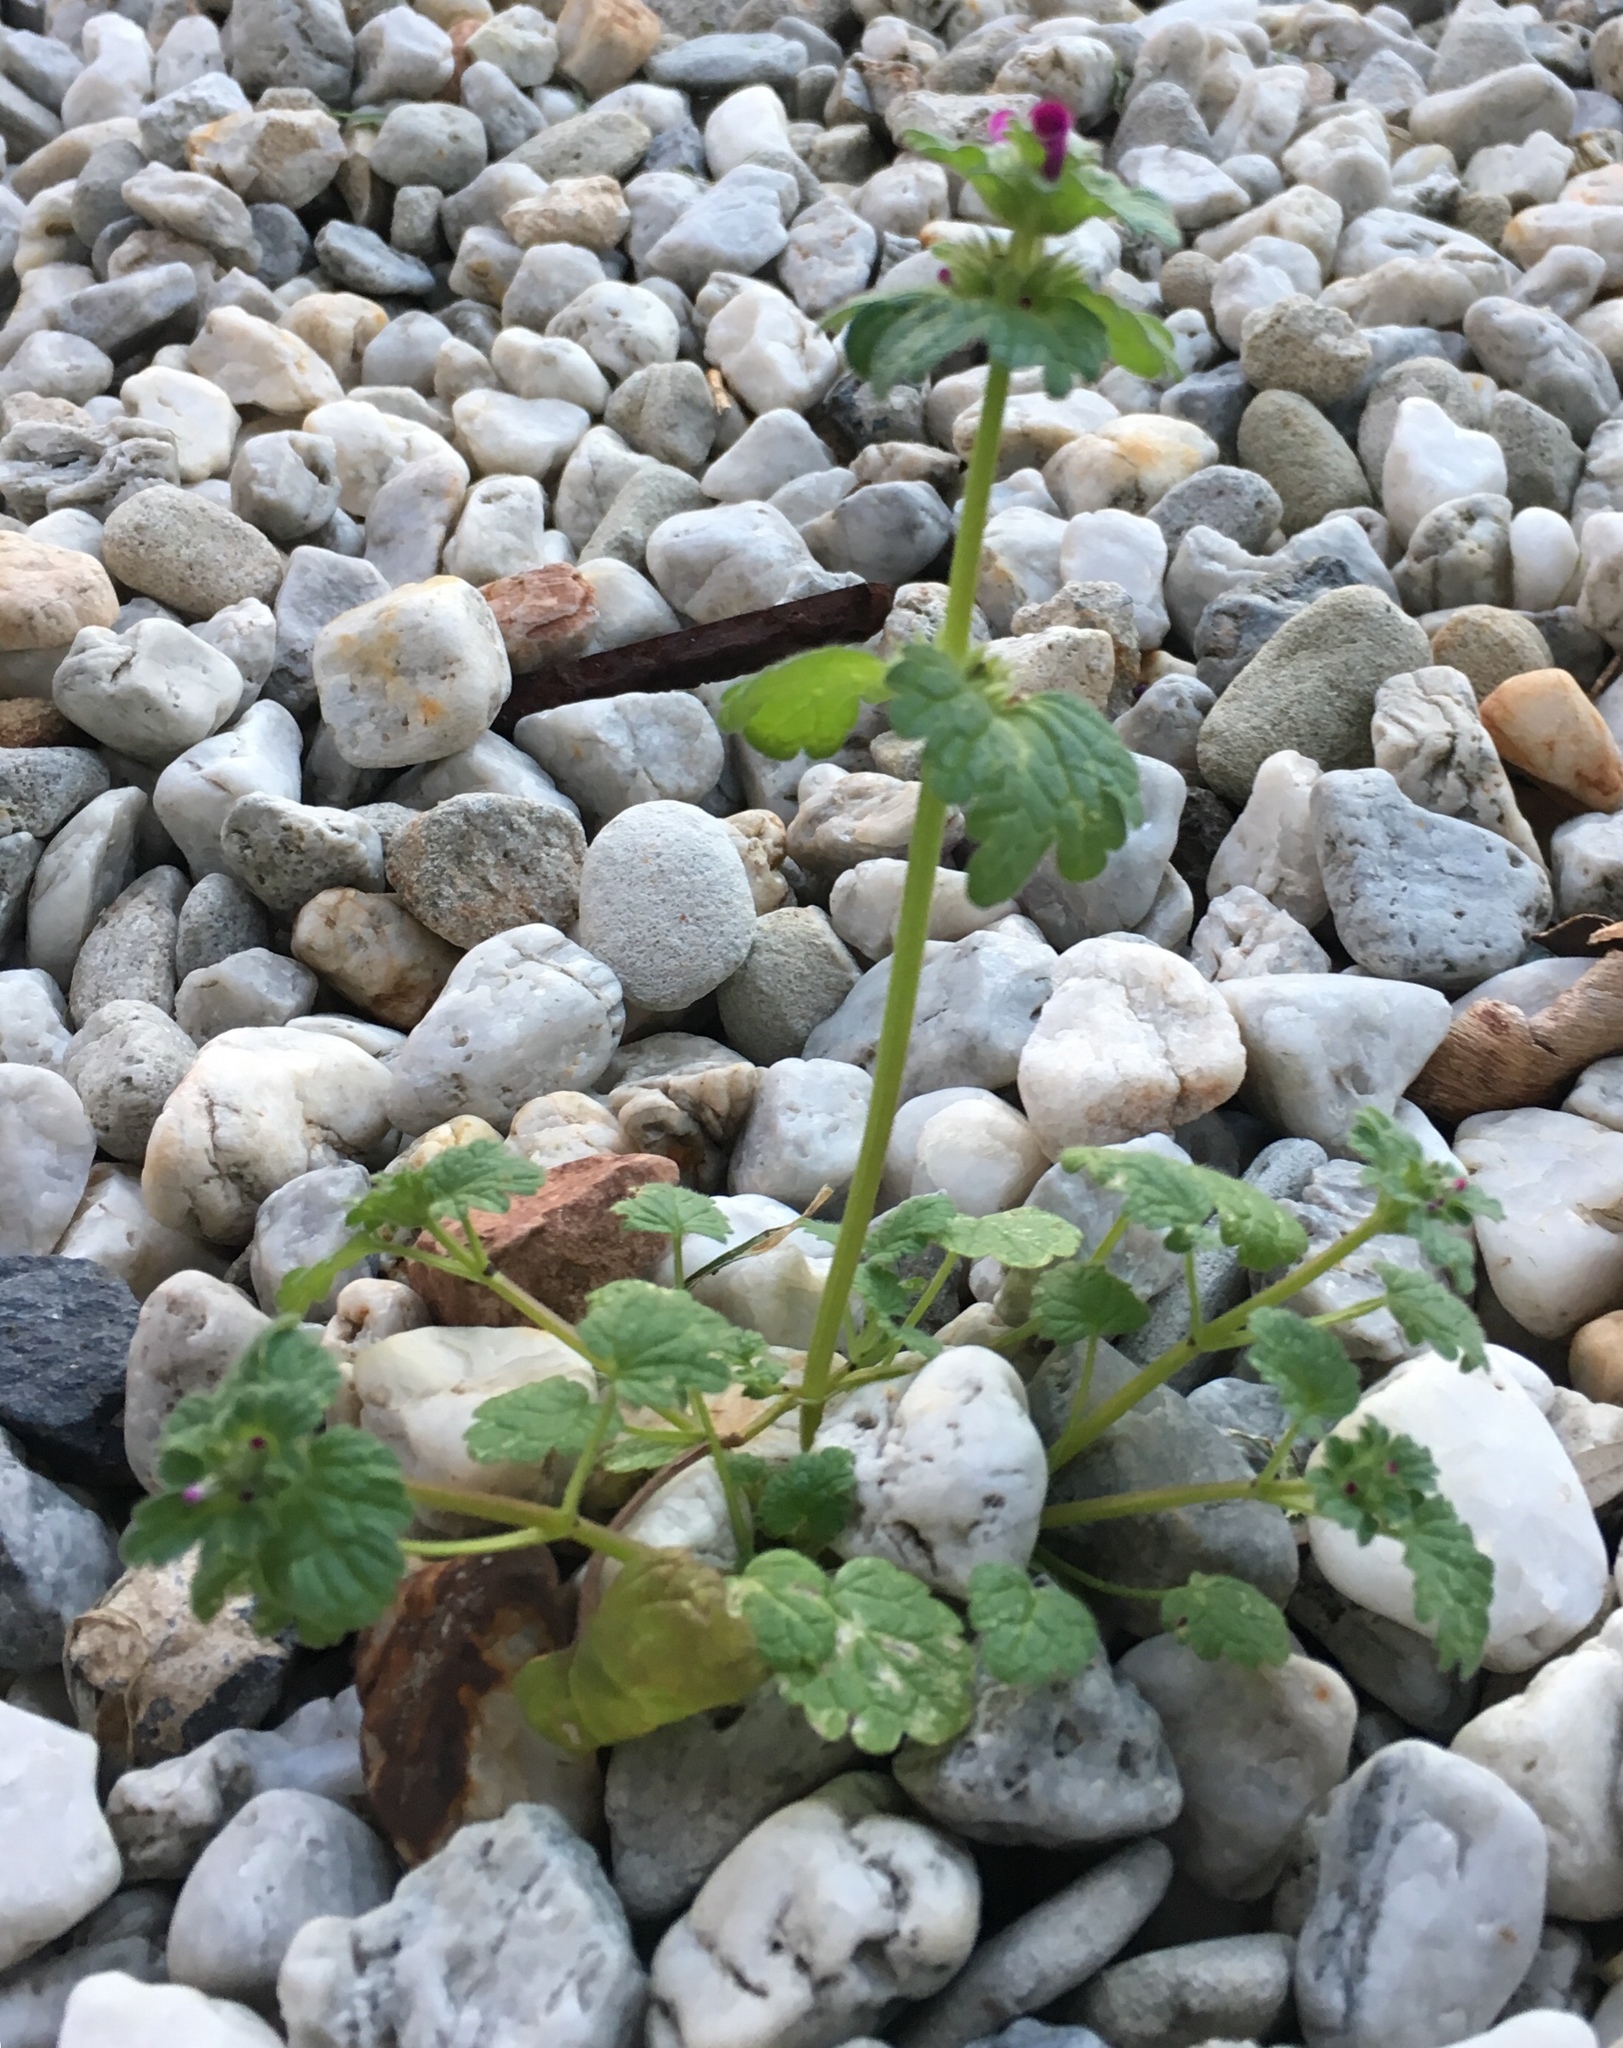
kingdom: Plantae
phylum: Tracheophyta
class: Magnoliopsida
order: Lamiales
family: Lamiaceae
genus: Lamium
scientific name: Lamium amplexicaule
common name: Henbit dead-nettle
